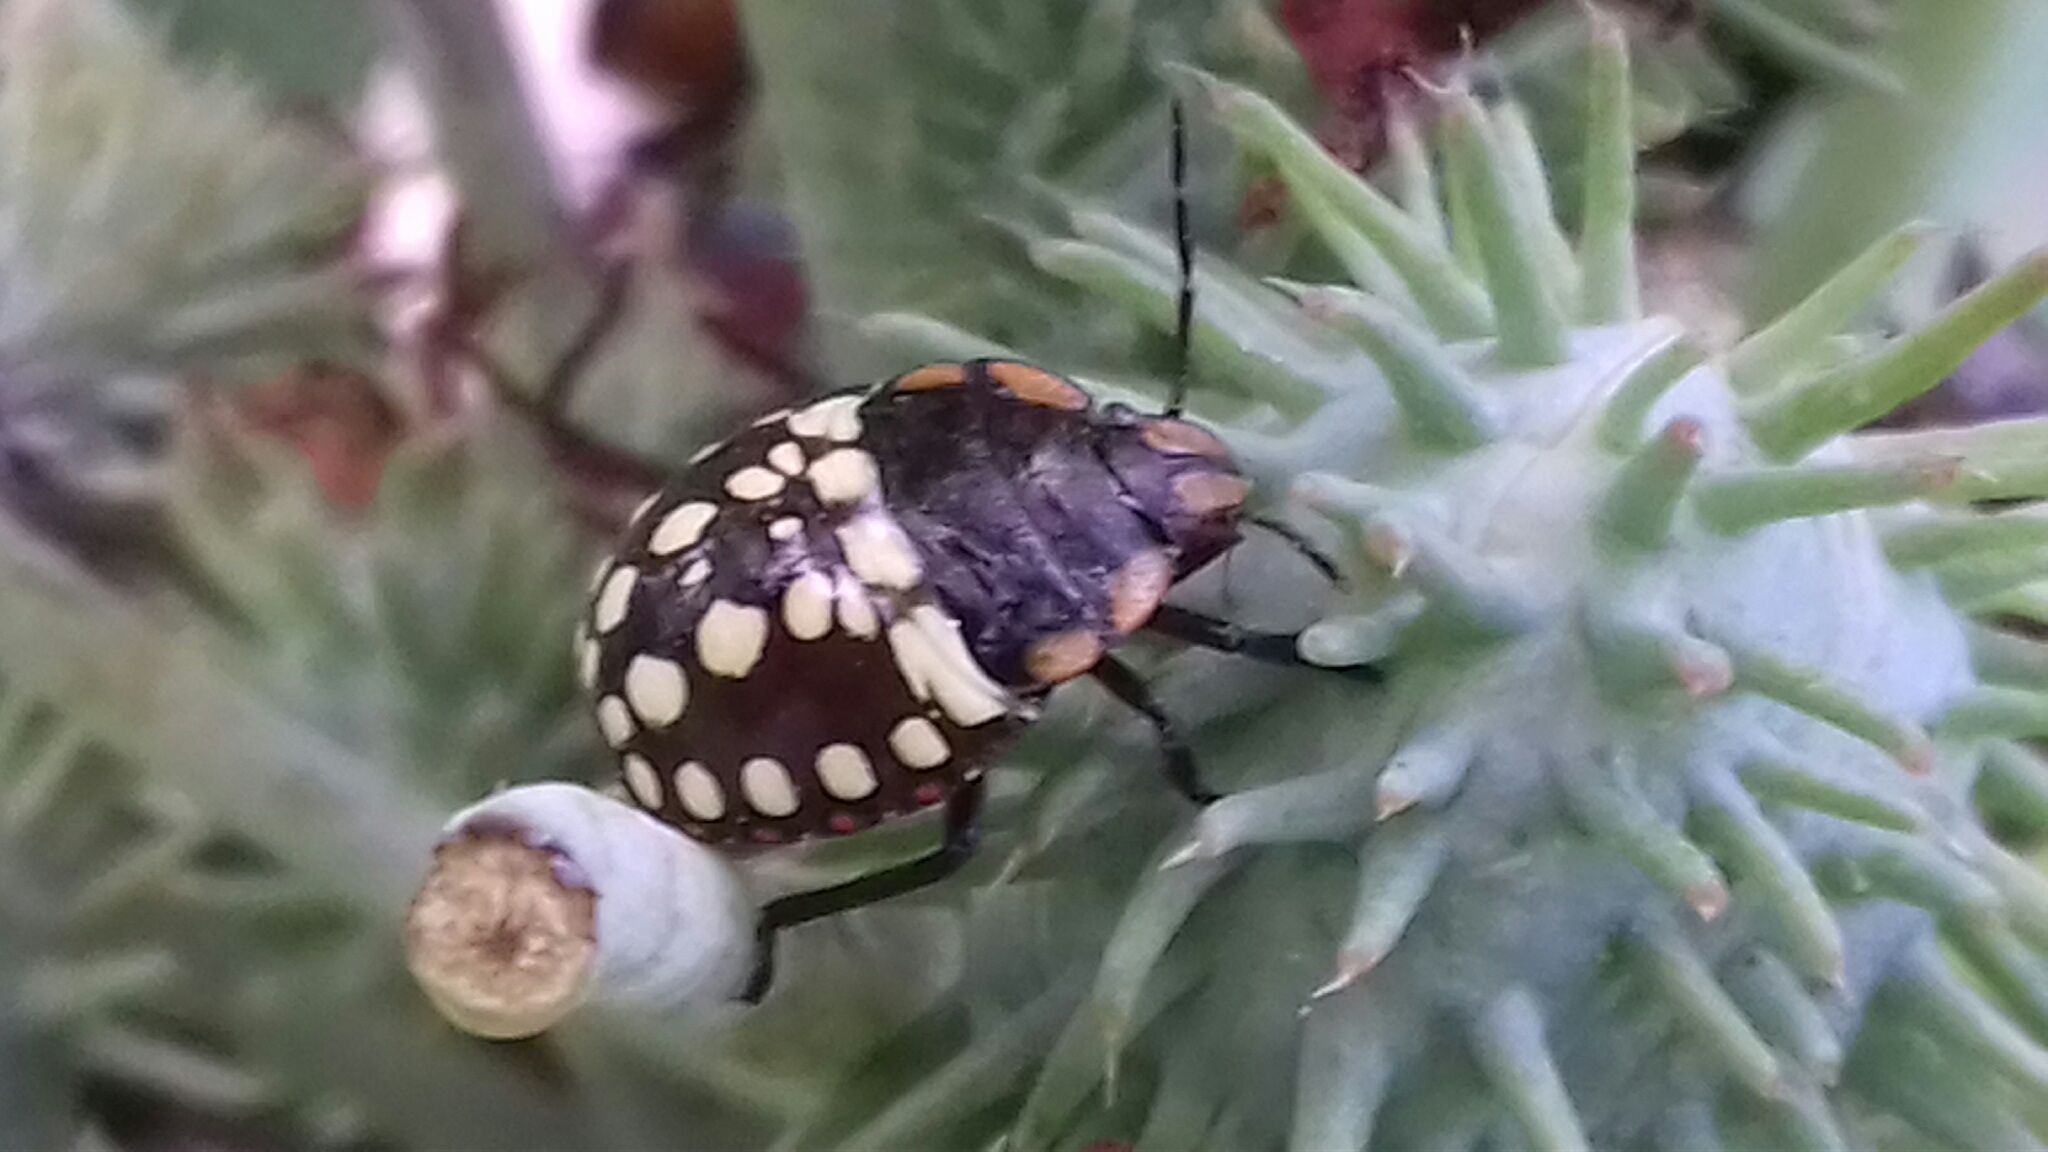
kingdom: Animalia
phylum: Arthropoda
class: Insecta
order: Hemiptera
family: Pentatomidae
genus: Nezara
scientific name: Nezara viridula
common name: Southern green stink bug
